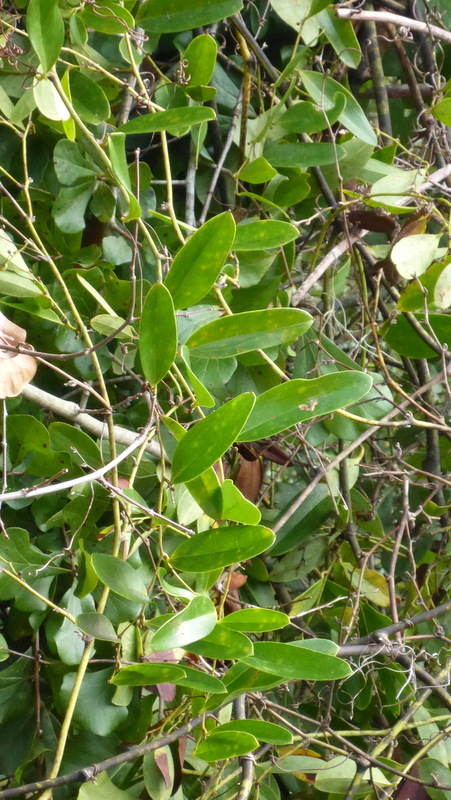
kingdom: Plantae
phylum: Tracheophyta
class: Liliopsida
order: Liliales
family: Smilacaceae
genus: Smilax
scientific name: Smilax laurifolia
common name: Bamboovine
